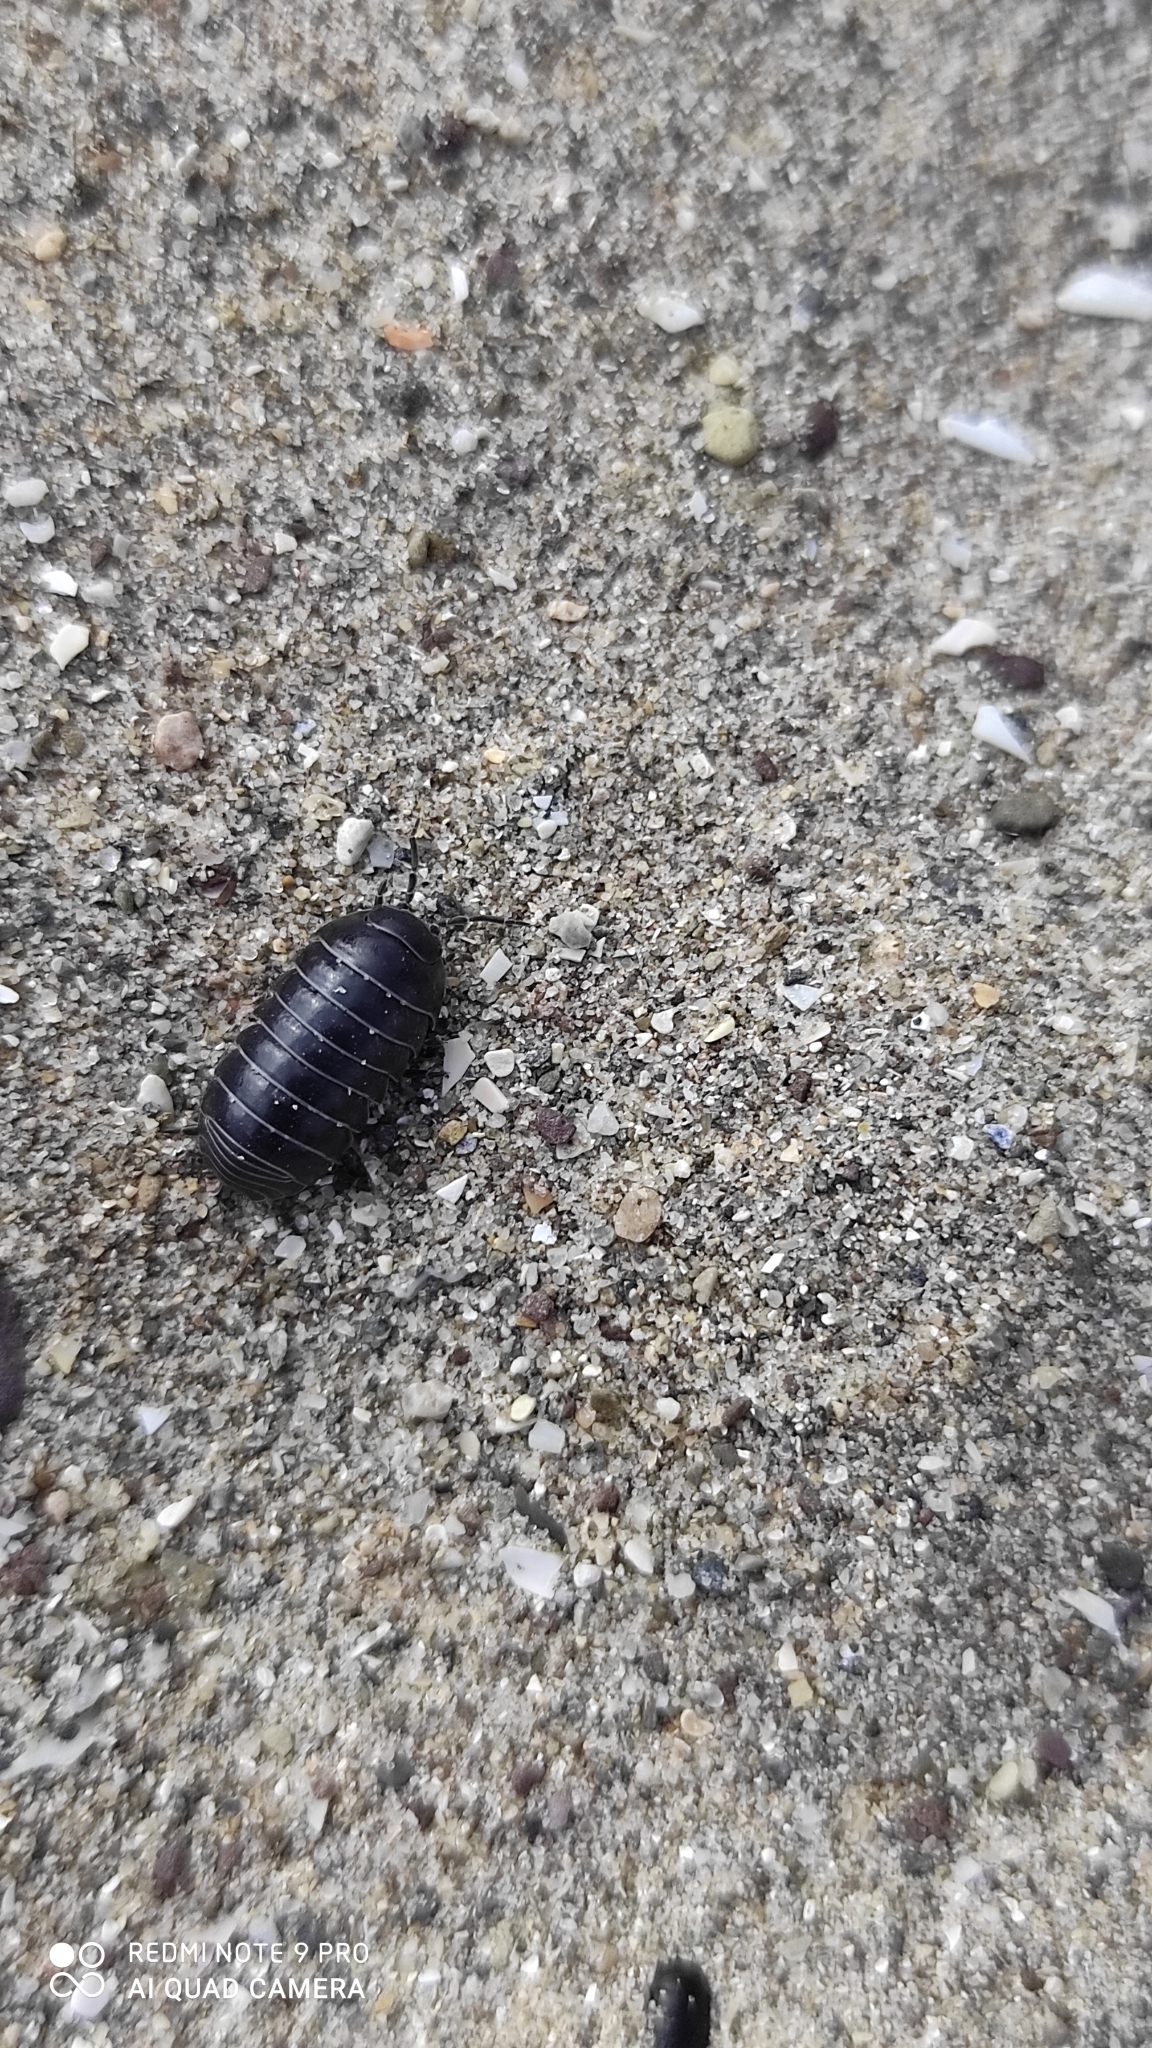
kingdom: Animalia
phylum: Arthropoda
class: Malacostraca
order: Isopoda
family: Armadillidiidae
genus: Armadillidium
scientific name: Armadillidium vulgare
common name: Common pill woodlouse
